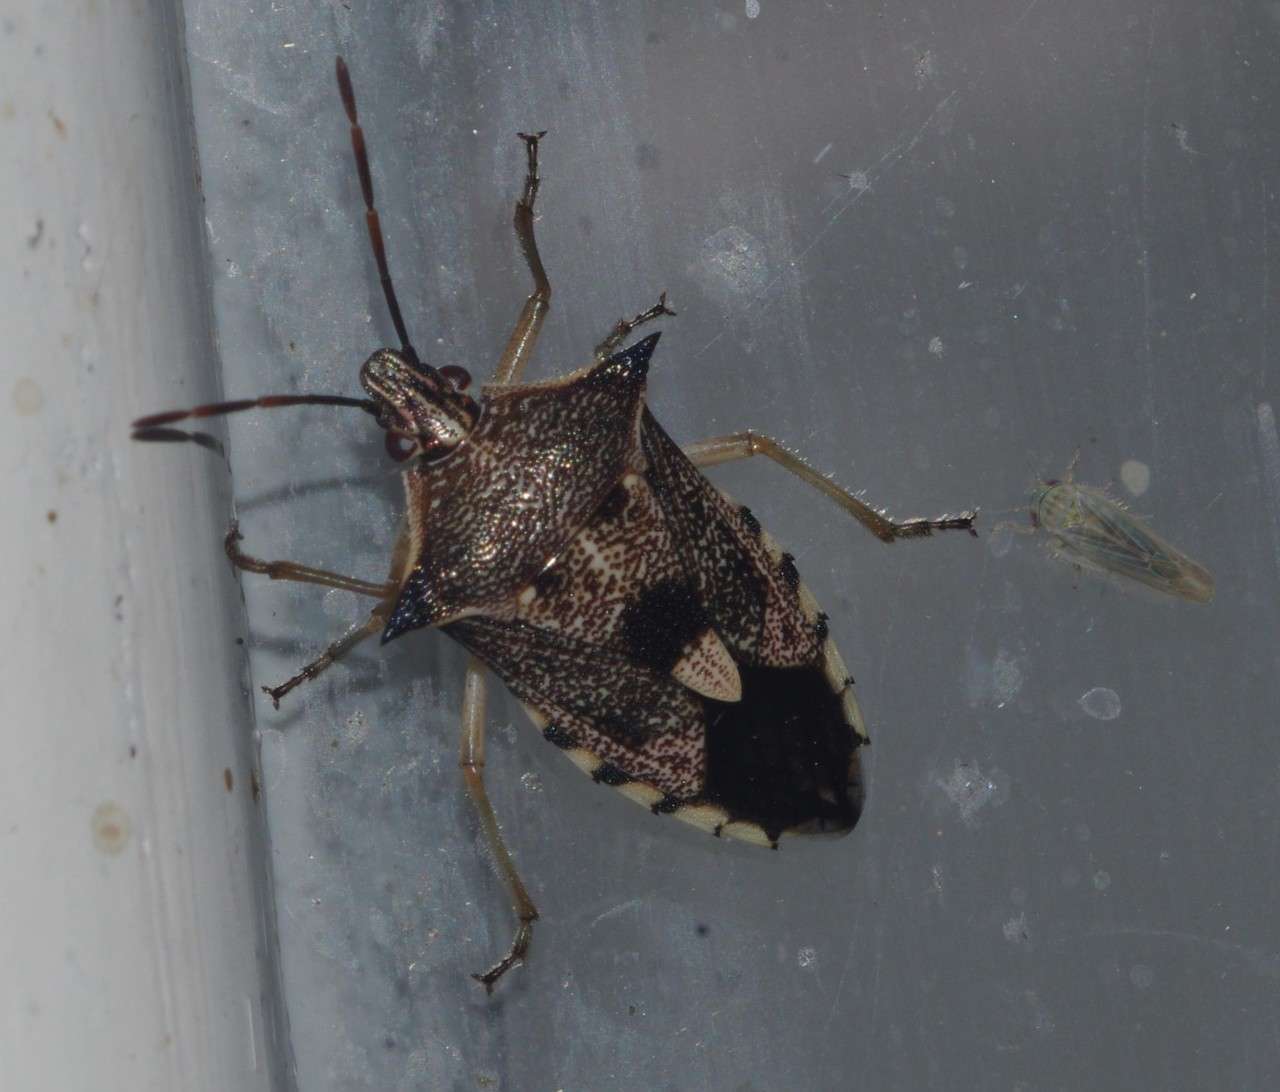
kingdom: Animalia
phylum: Arthropoda
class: Insecta
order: Hemiptera
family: Pentatomidae
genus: Oechalia
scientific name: Oechalia schellenbergii
